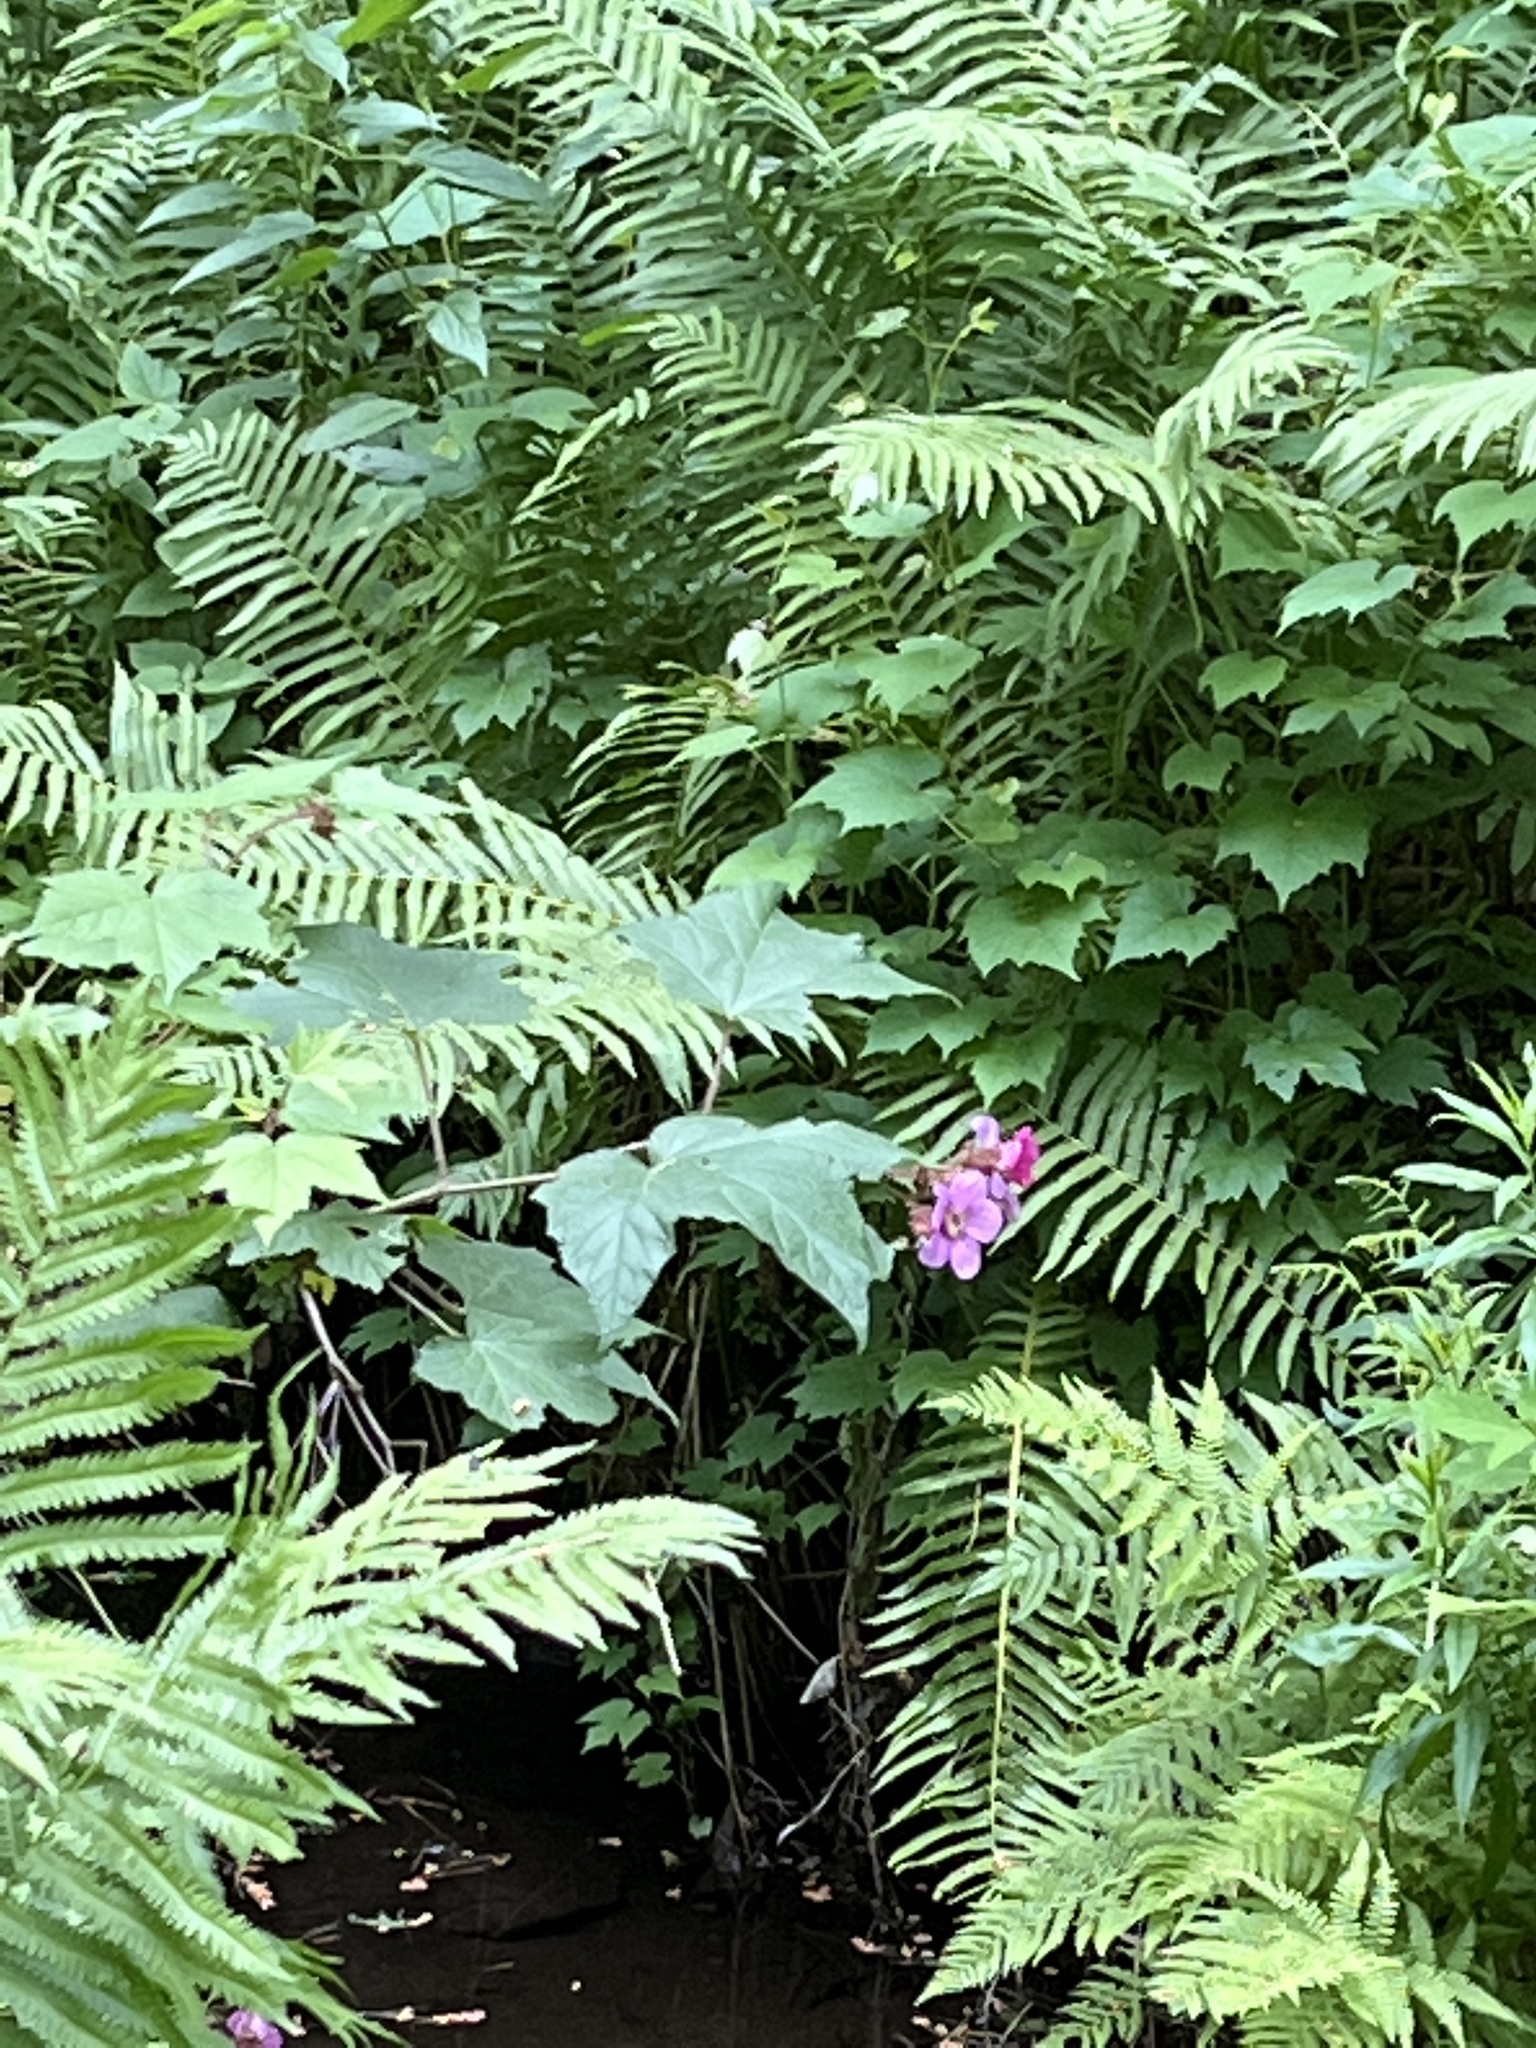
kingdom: Plantae
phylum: Tracheophyta
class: Magnoliopsida
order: Rosales
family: Rosaceae
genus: Rubus
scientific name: Rubus odoratus
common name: Purple-flowered raspberry
